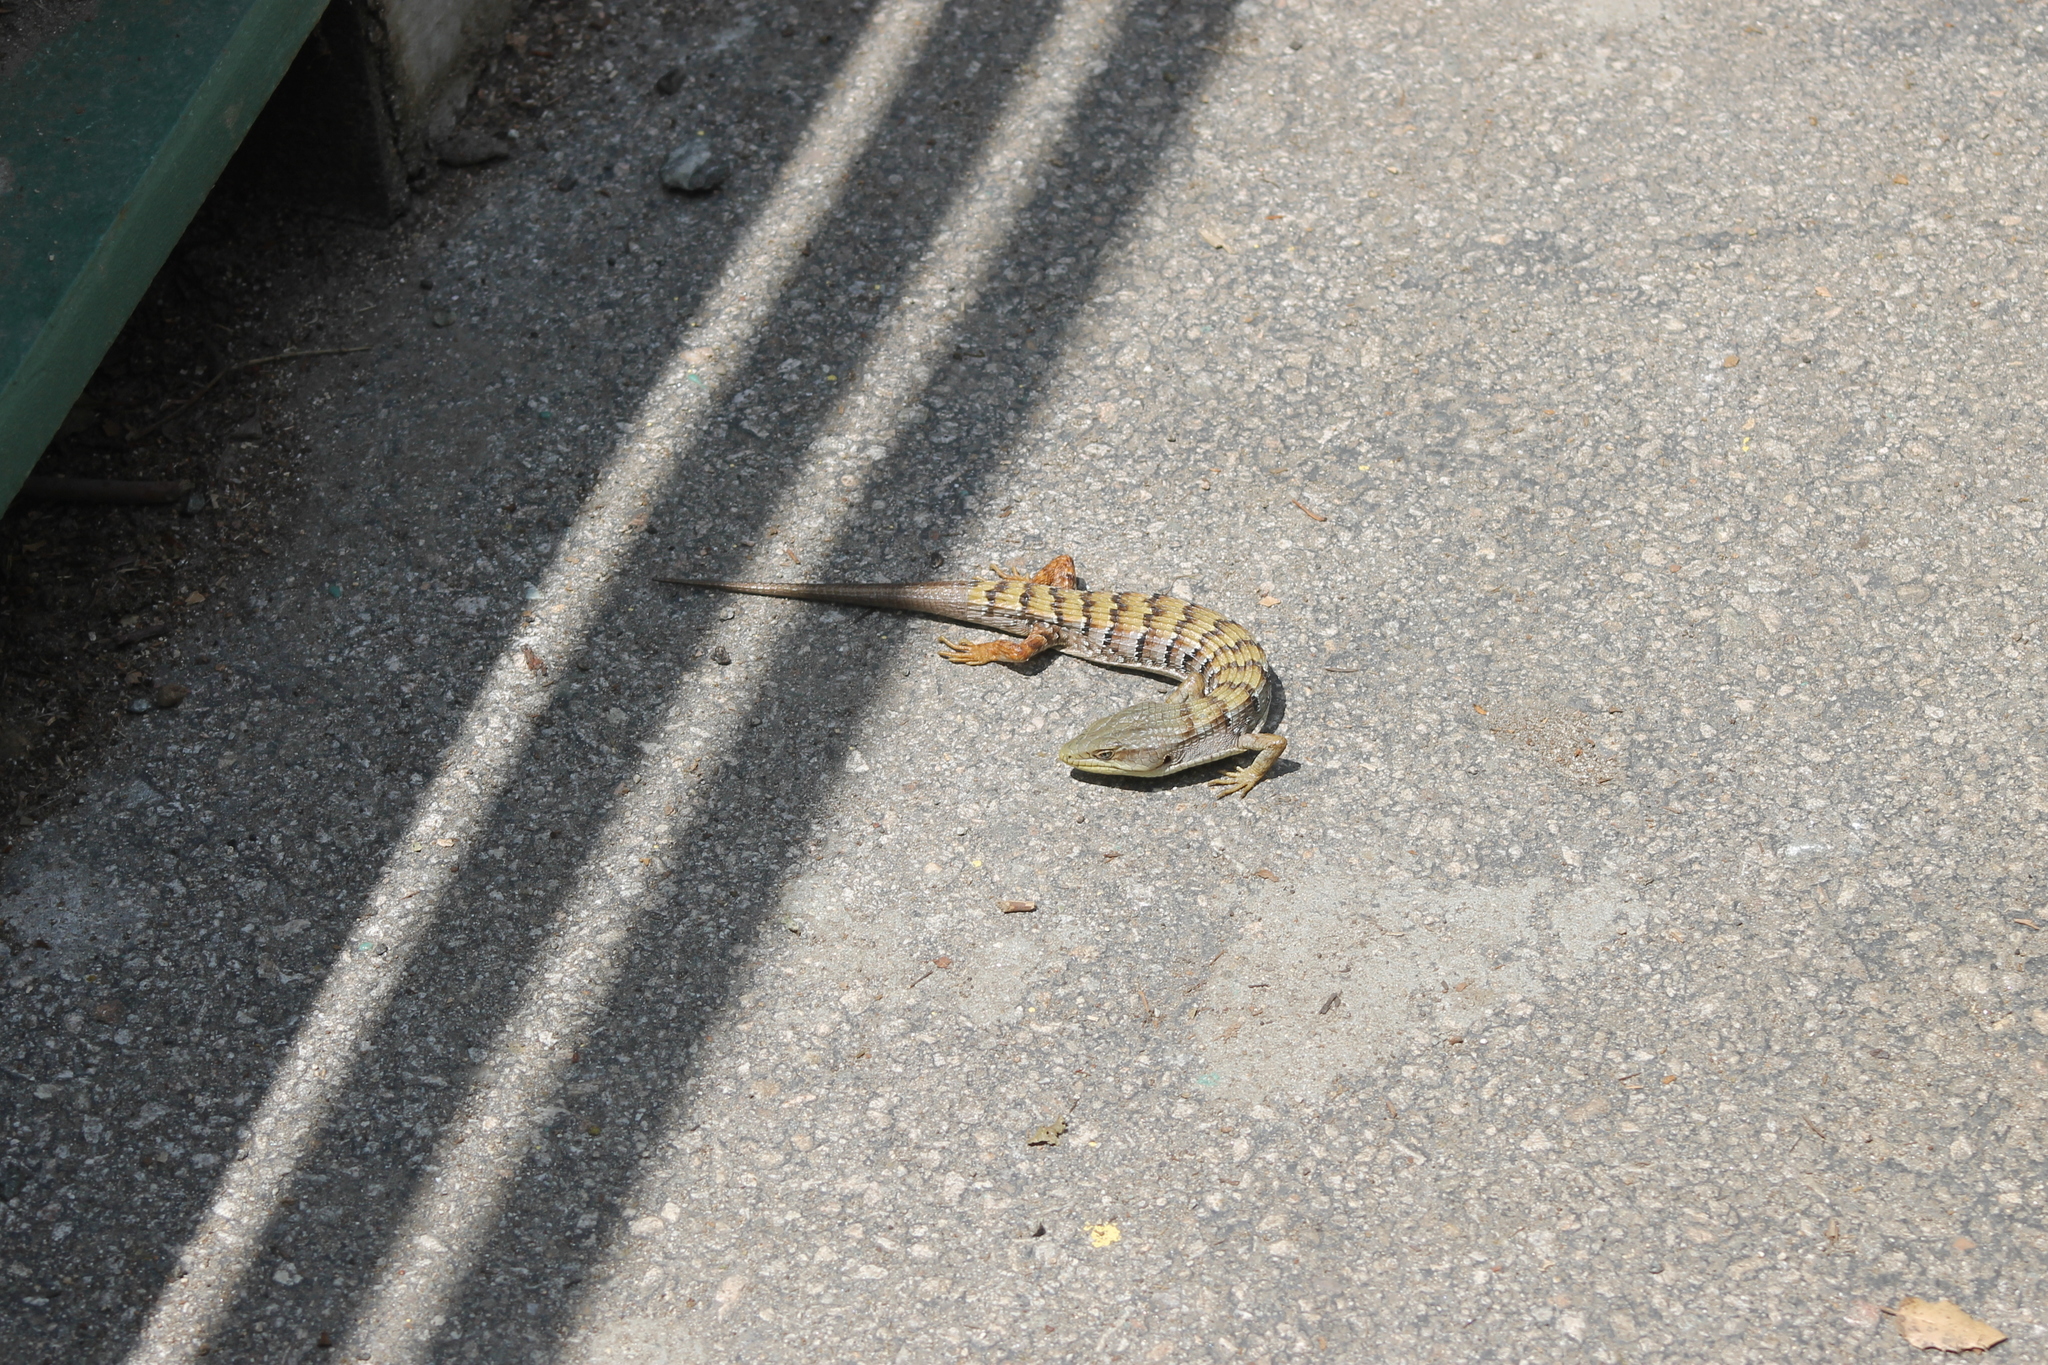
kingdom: Animalia
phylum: Chordata
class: Squamata
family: Anguidae
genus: Elgaria
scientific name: Elgaria multicarinata
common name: Southern alligator lizard
